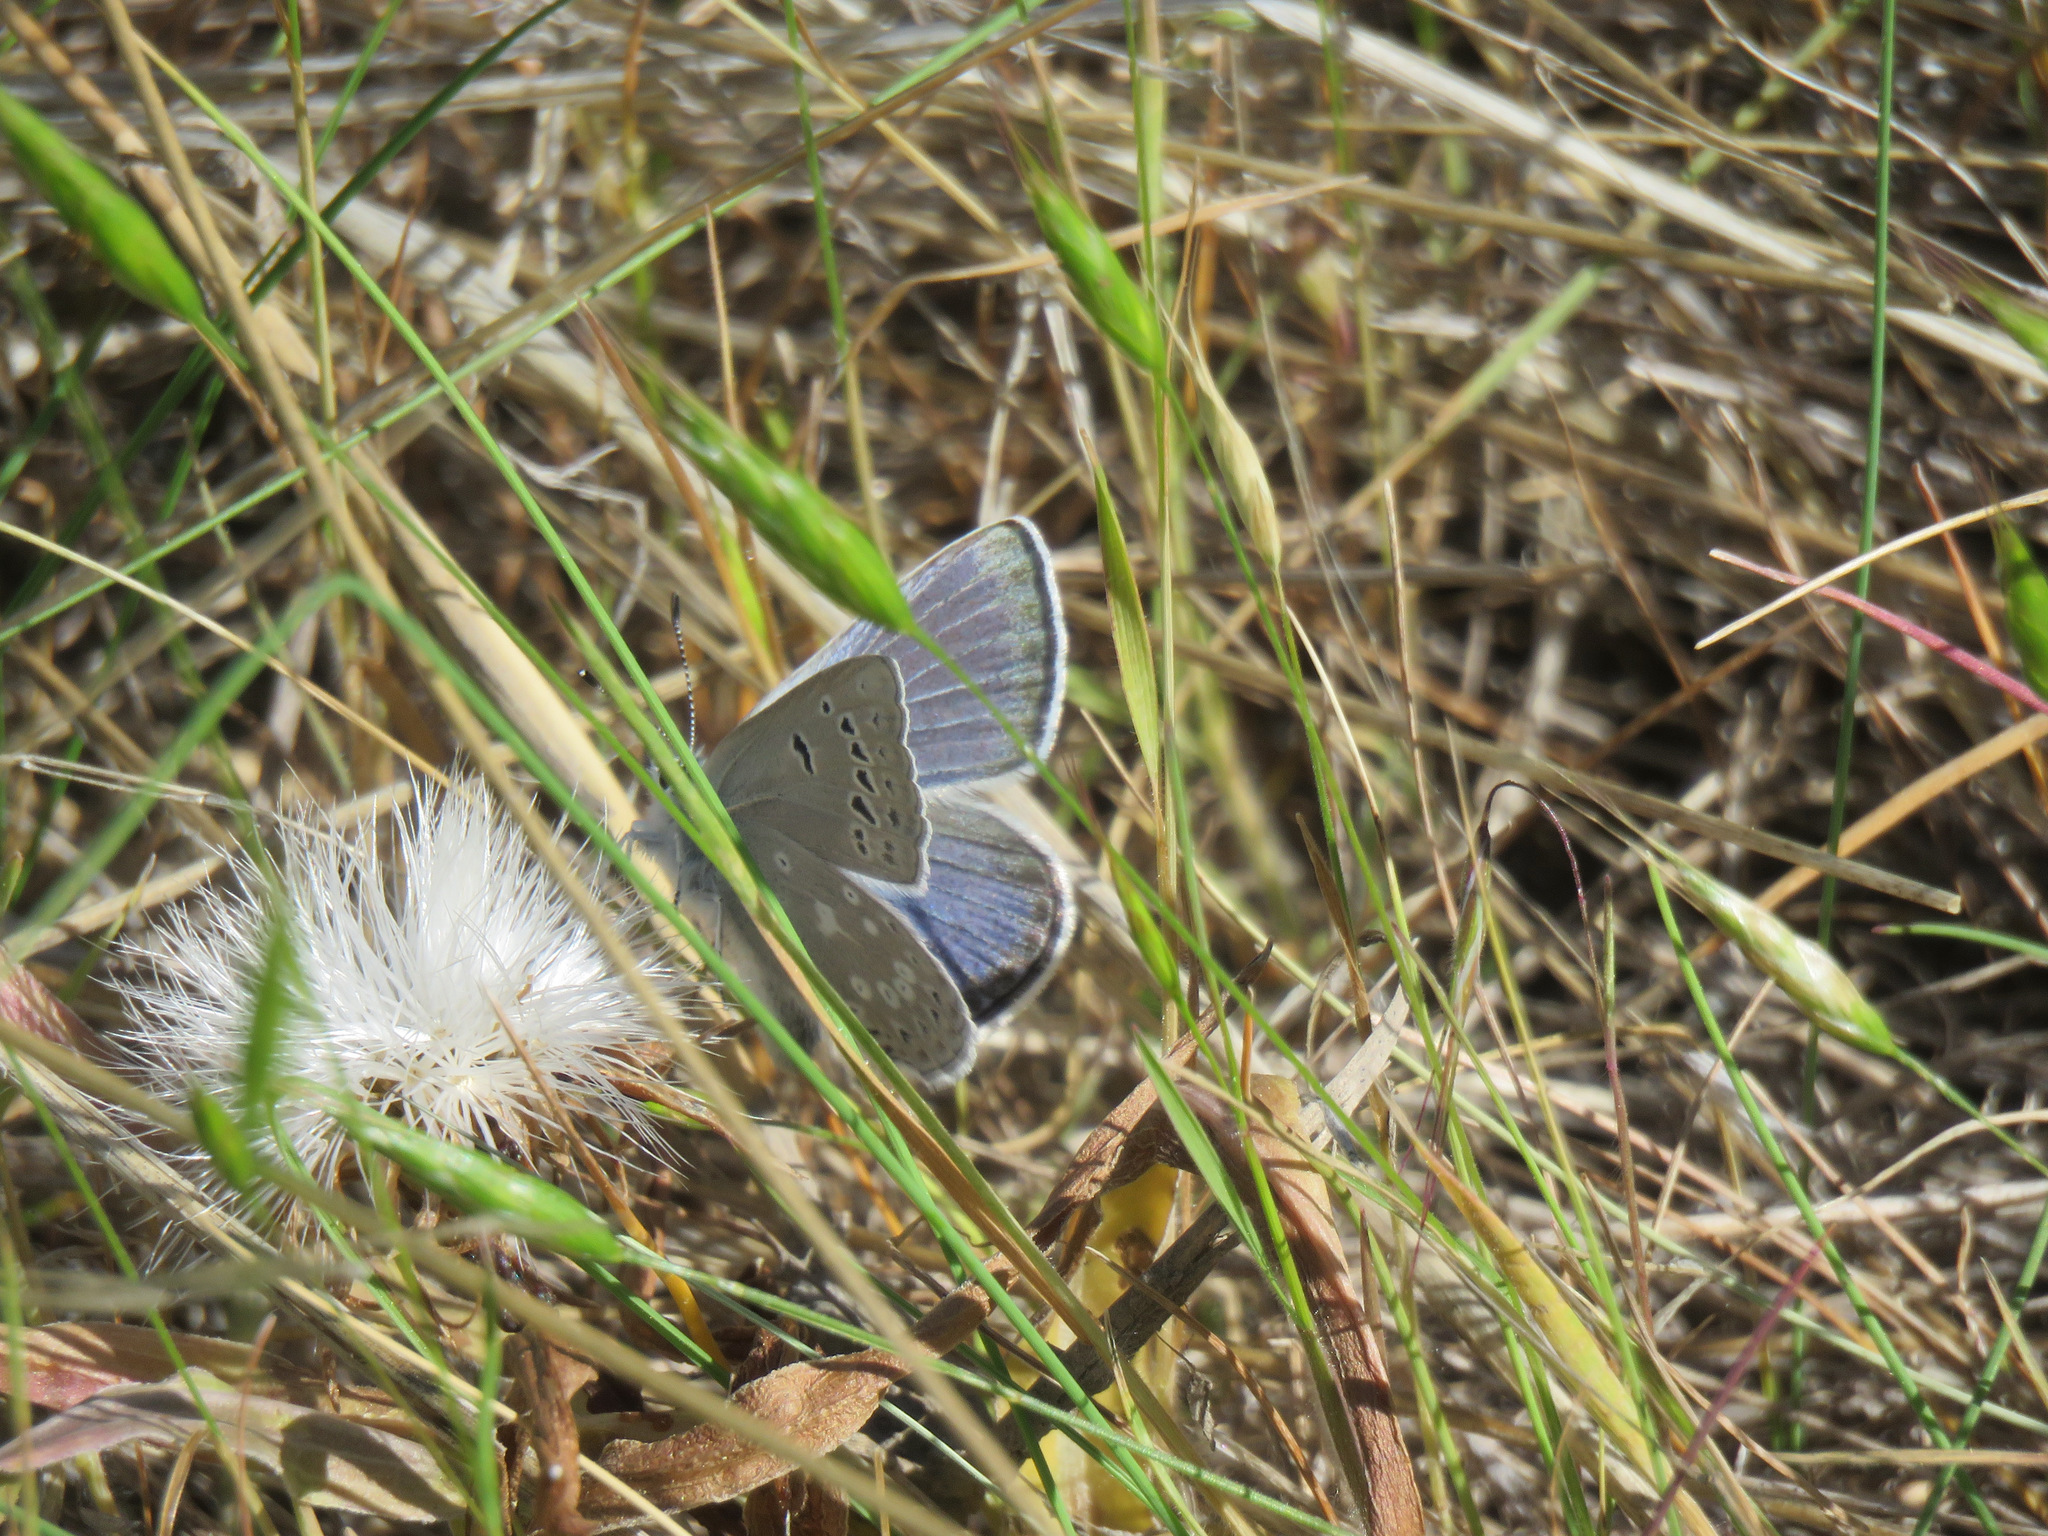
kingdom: Animalia
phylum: Arthropoda
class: Insecta
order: Lepidoptera
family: Lycaenidae
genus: Icaricia
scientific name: Icaricia icarioides
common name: Boisduval's blue
